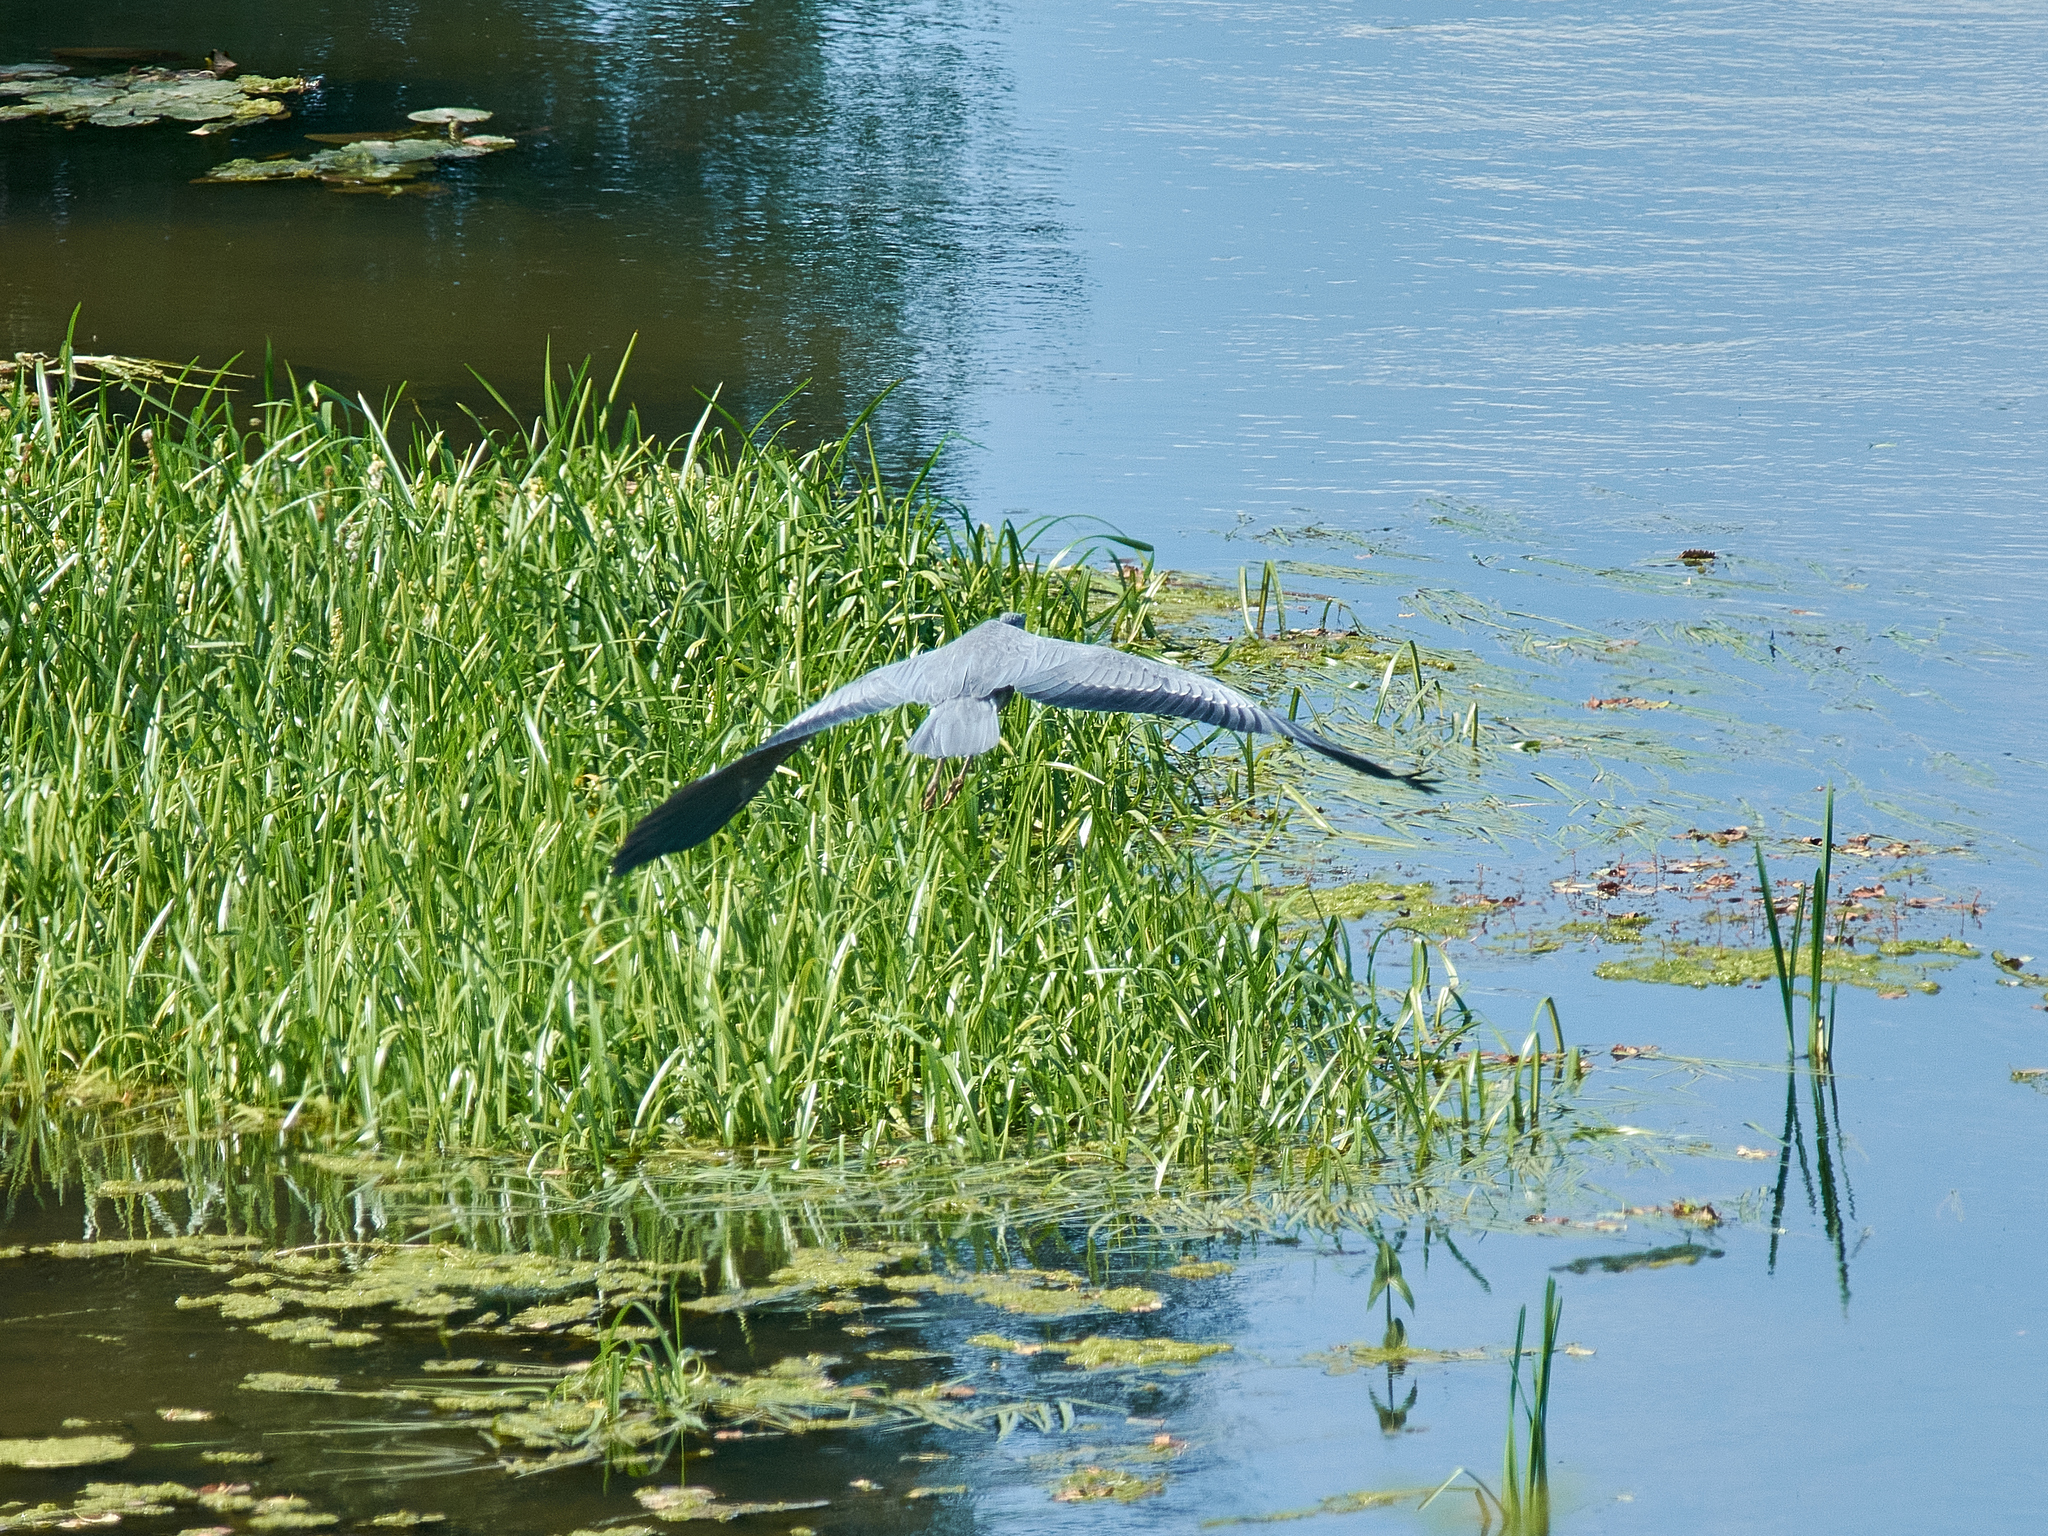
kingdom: Animalia
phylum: Chordata
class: Aves
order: Pelecaniformes
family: Ardeidae
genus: Ardea
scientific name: Ardea cinerea
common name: Grey heron
